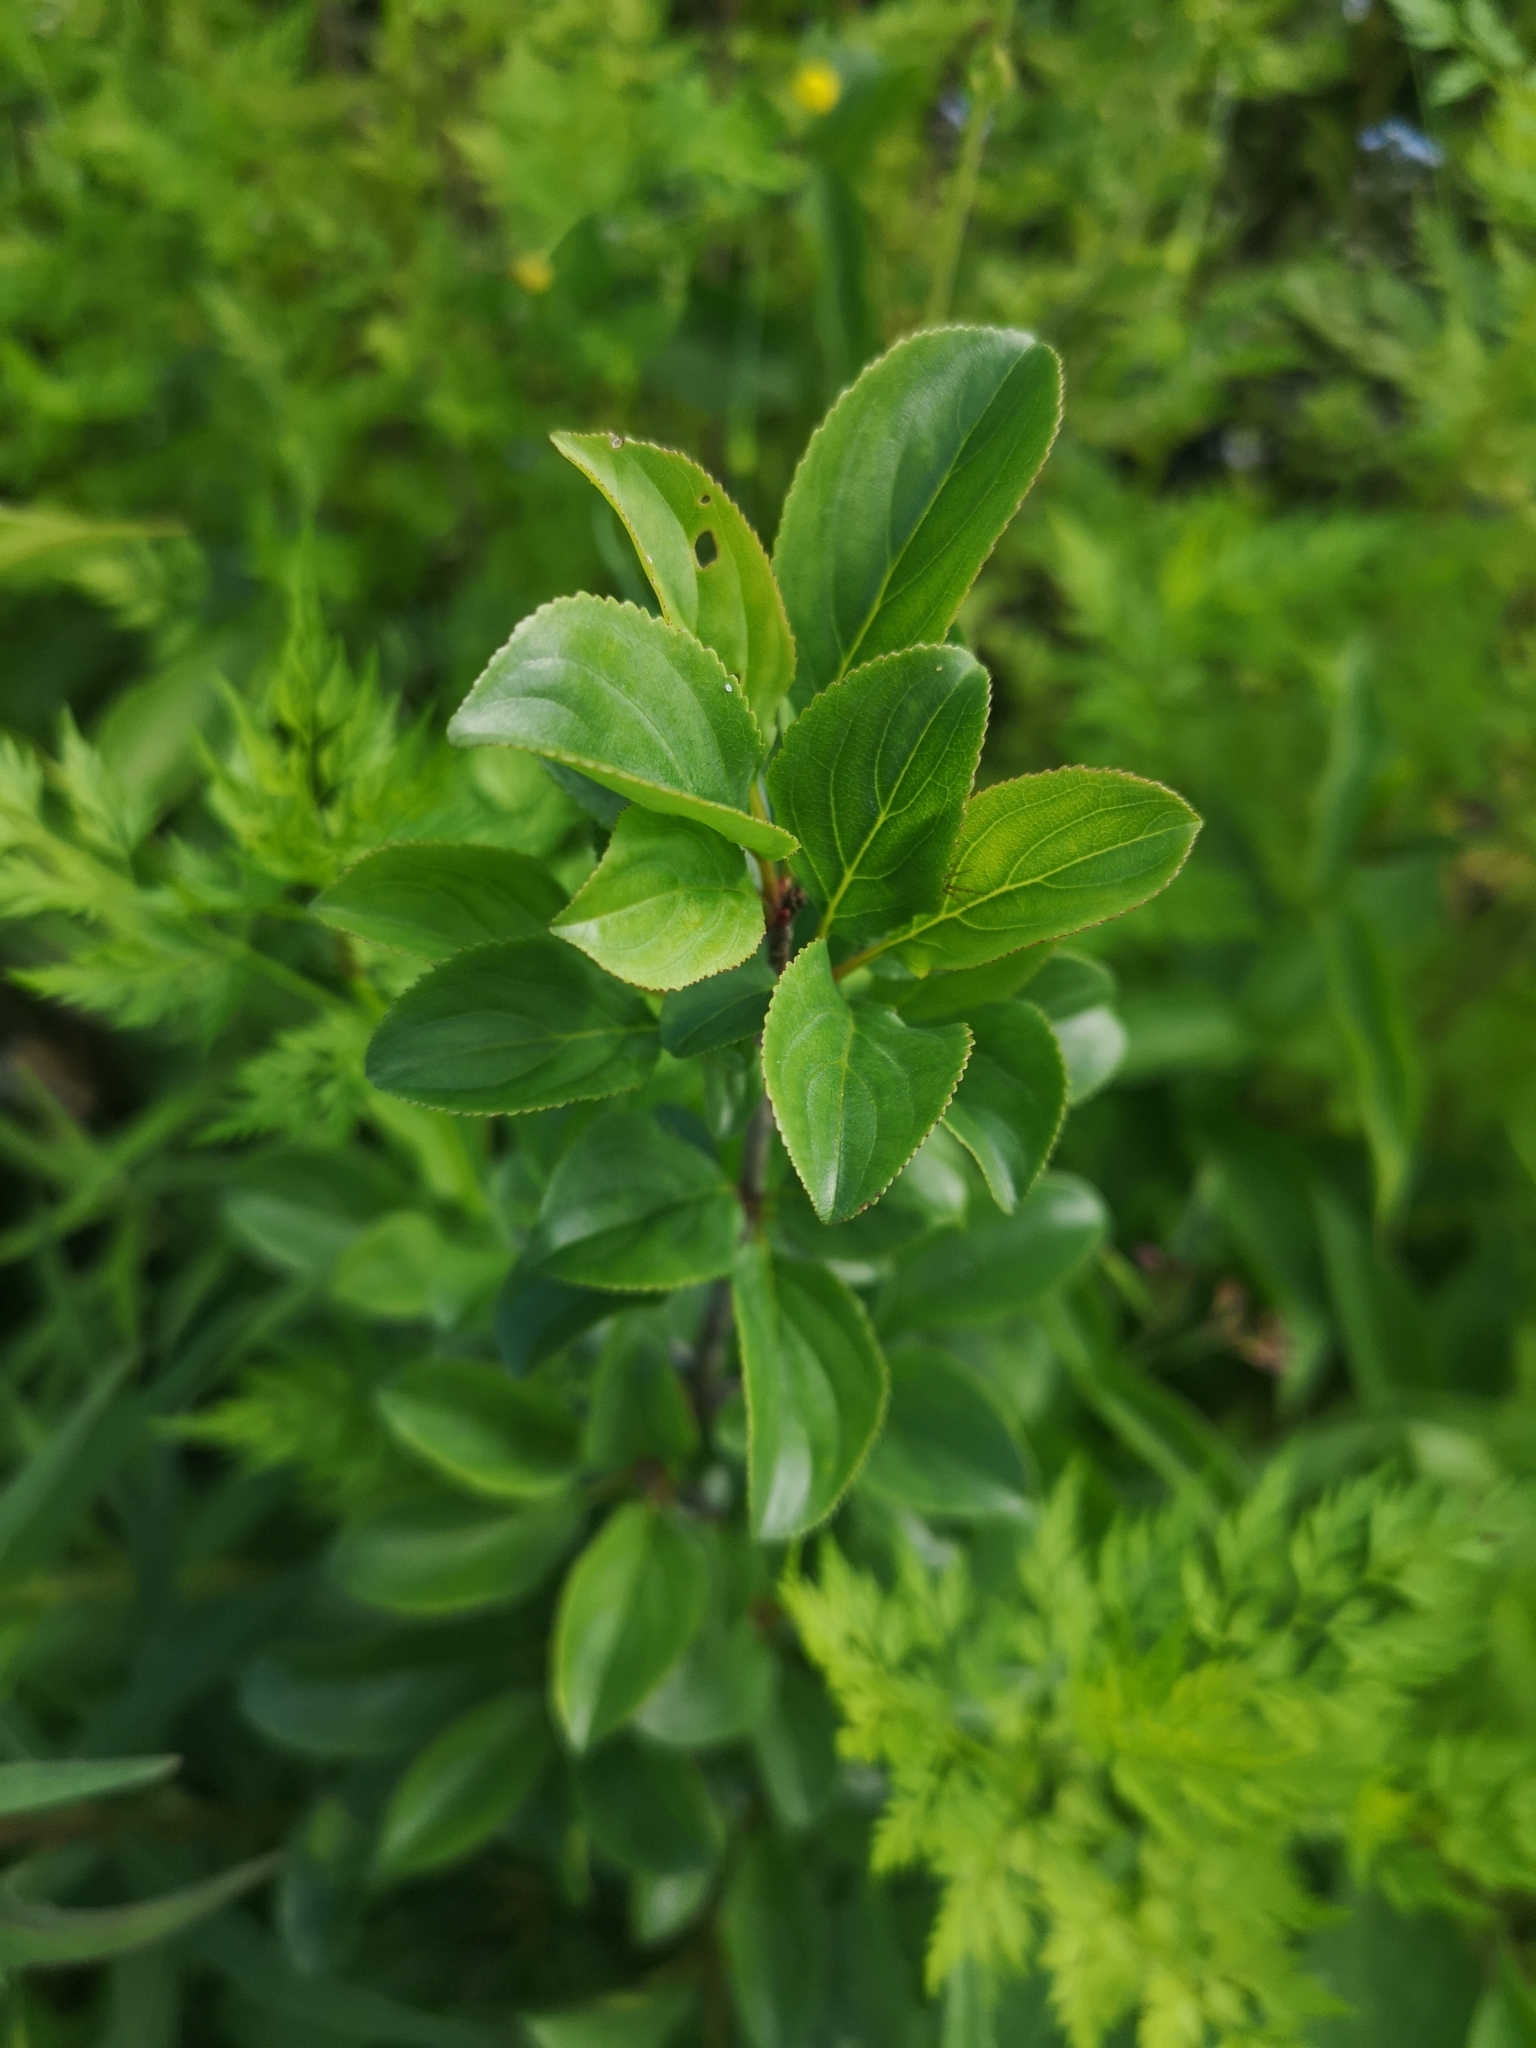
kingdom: Plantae
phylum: Tracheophyta
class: Magnoliopsida
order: Rosales
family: Rhamnaceae
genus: Rhamnus
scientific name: Rhamnus cathartica
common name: Common buckthorn
